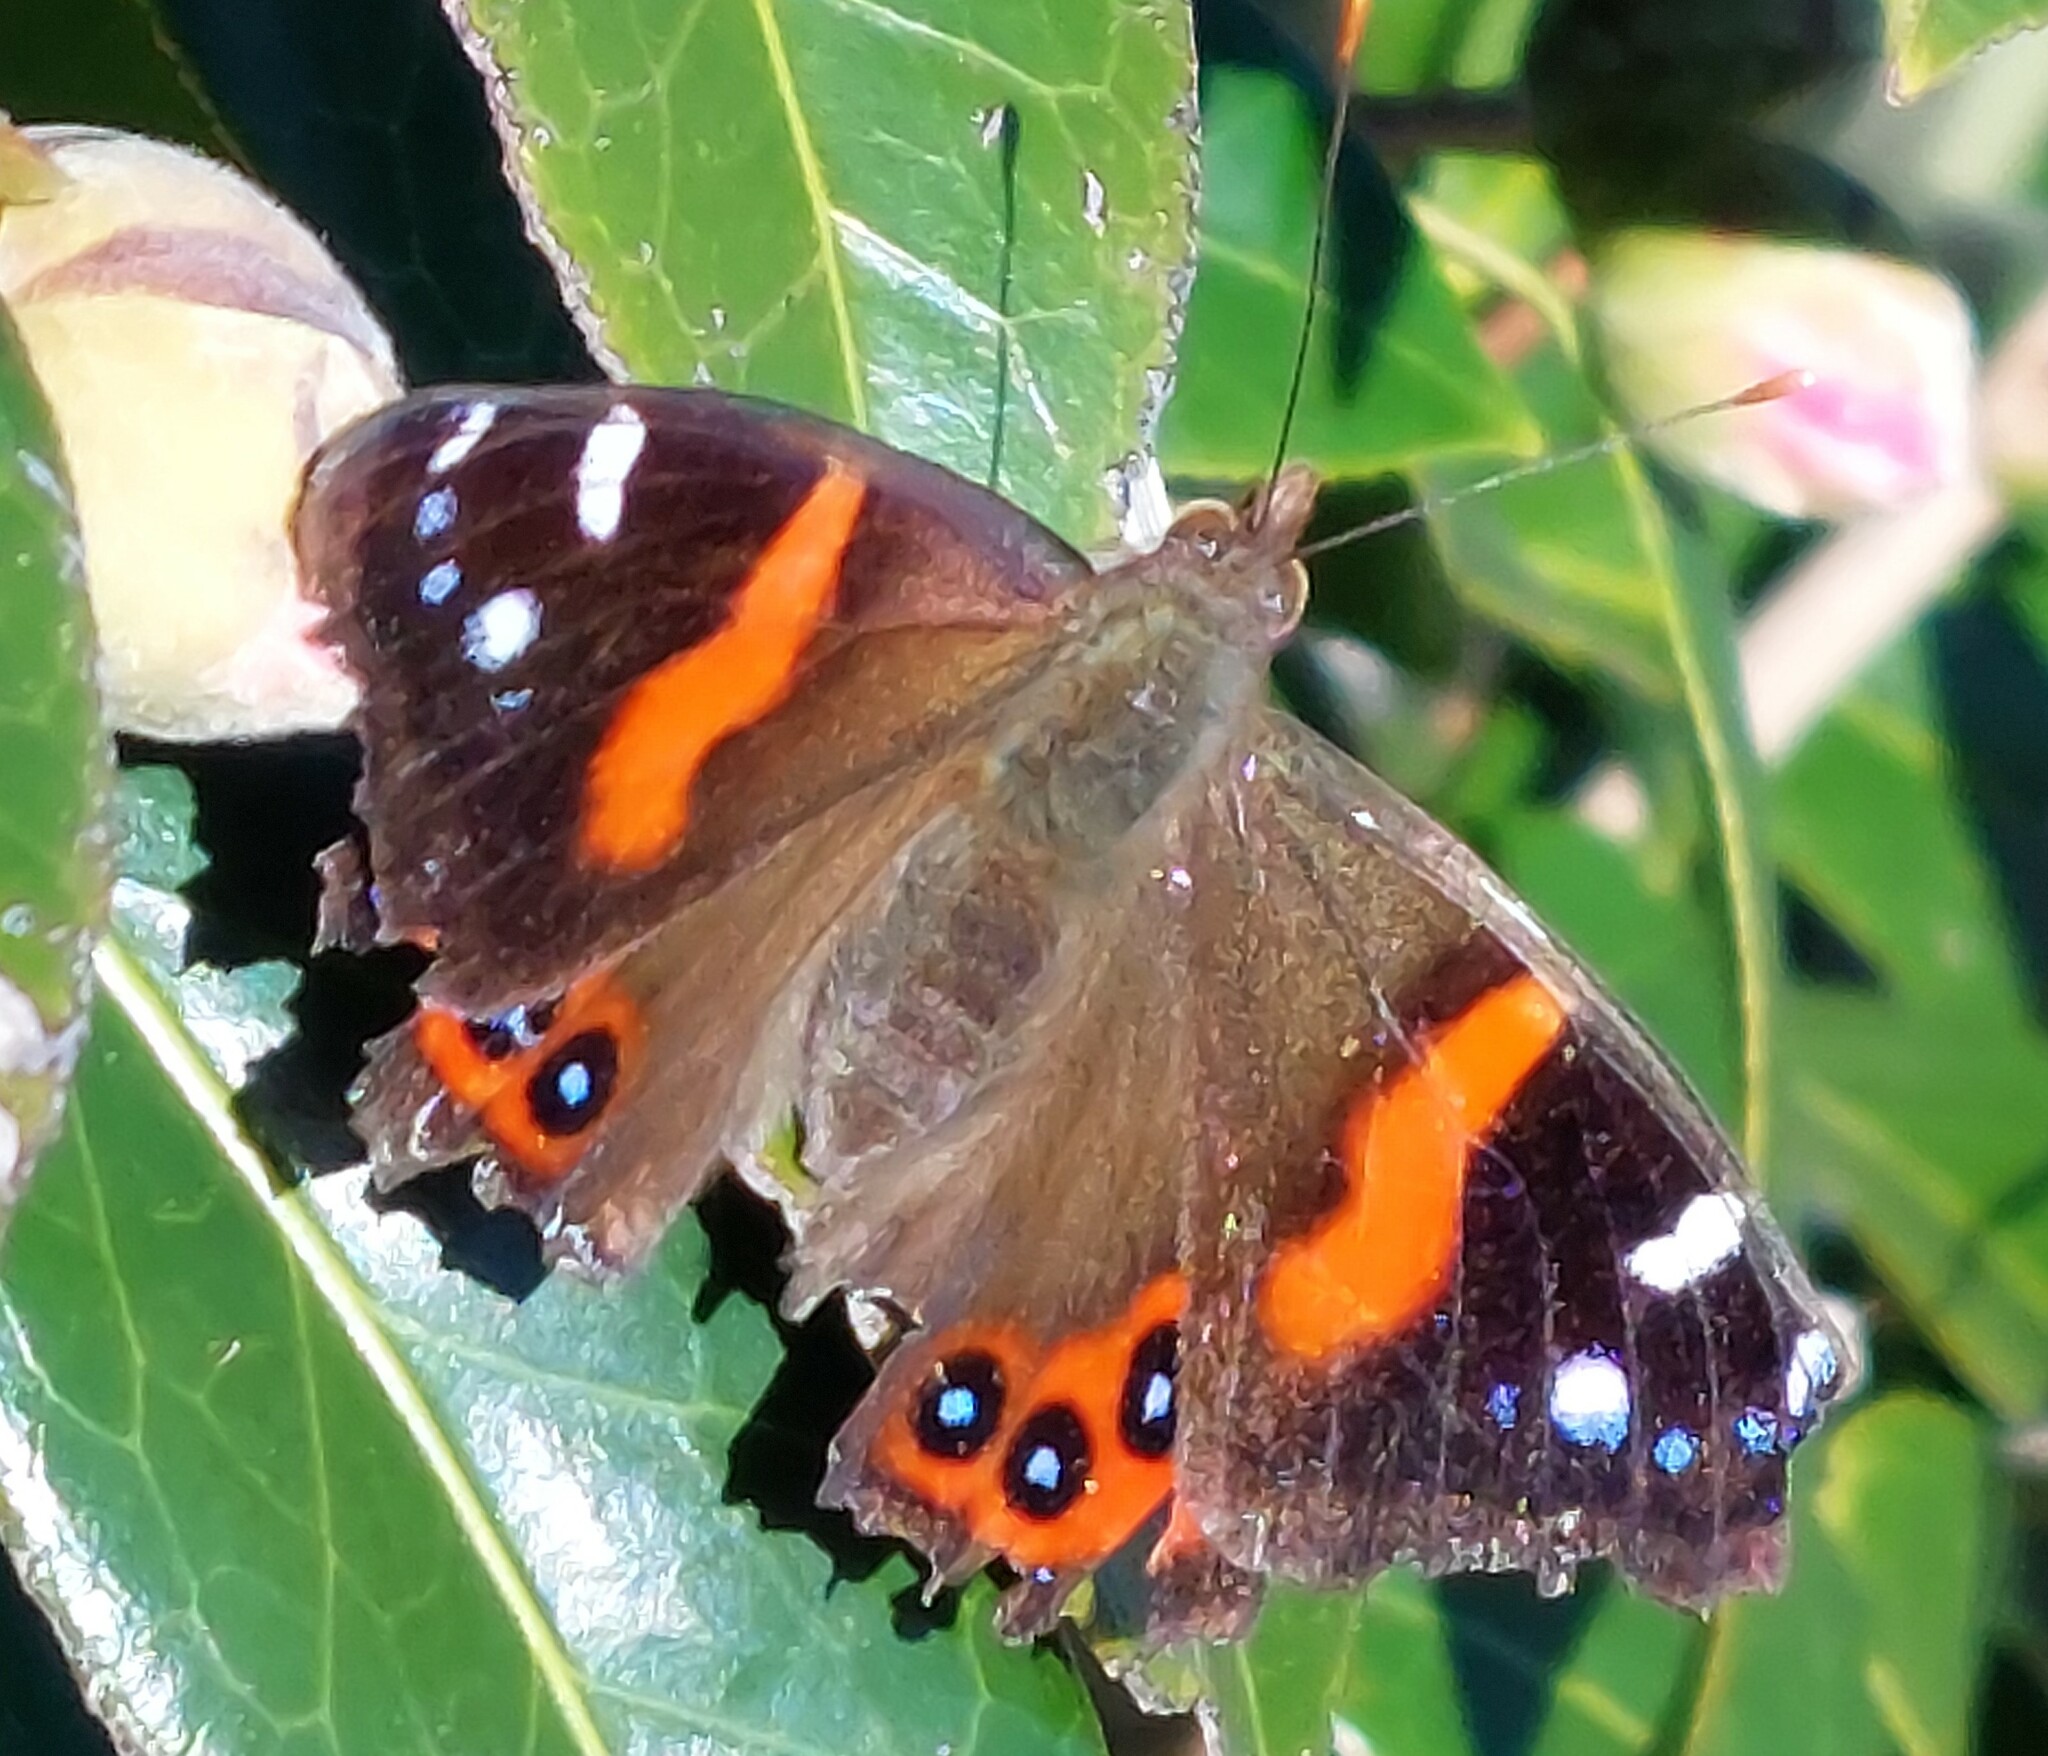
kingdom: Animalia
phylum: Arthropoda
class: Insecta
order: Lepidoptera
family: Nymphalidae
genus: Vanessa
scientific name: Vanessa gonerilla
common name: New zealand red admiral
